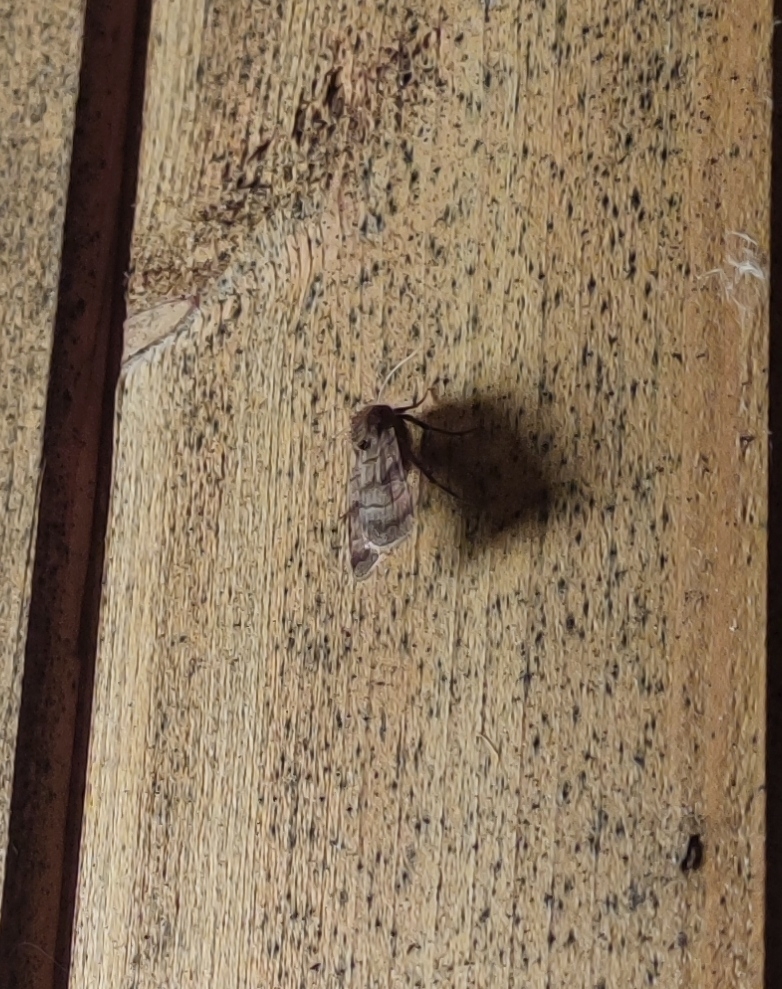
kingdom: Animalia
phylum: Arthropoda
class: Insecta
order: Lepidoptera
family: Noctuidae
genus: Xestia
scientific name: Xestia sexstrigata
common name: Six-striped rustic
